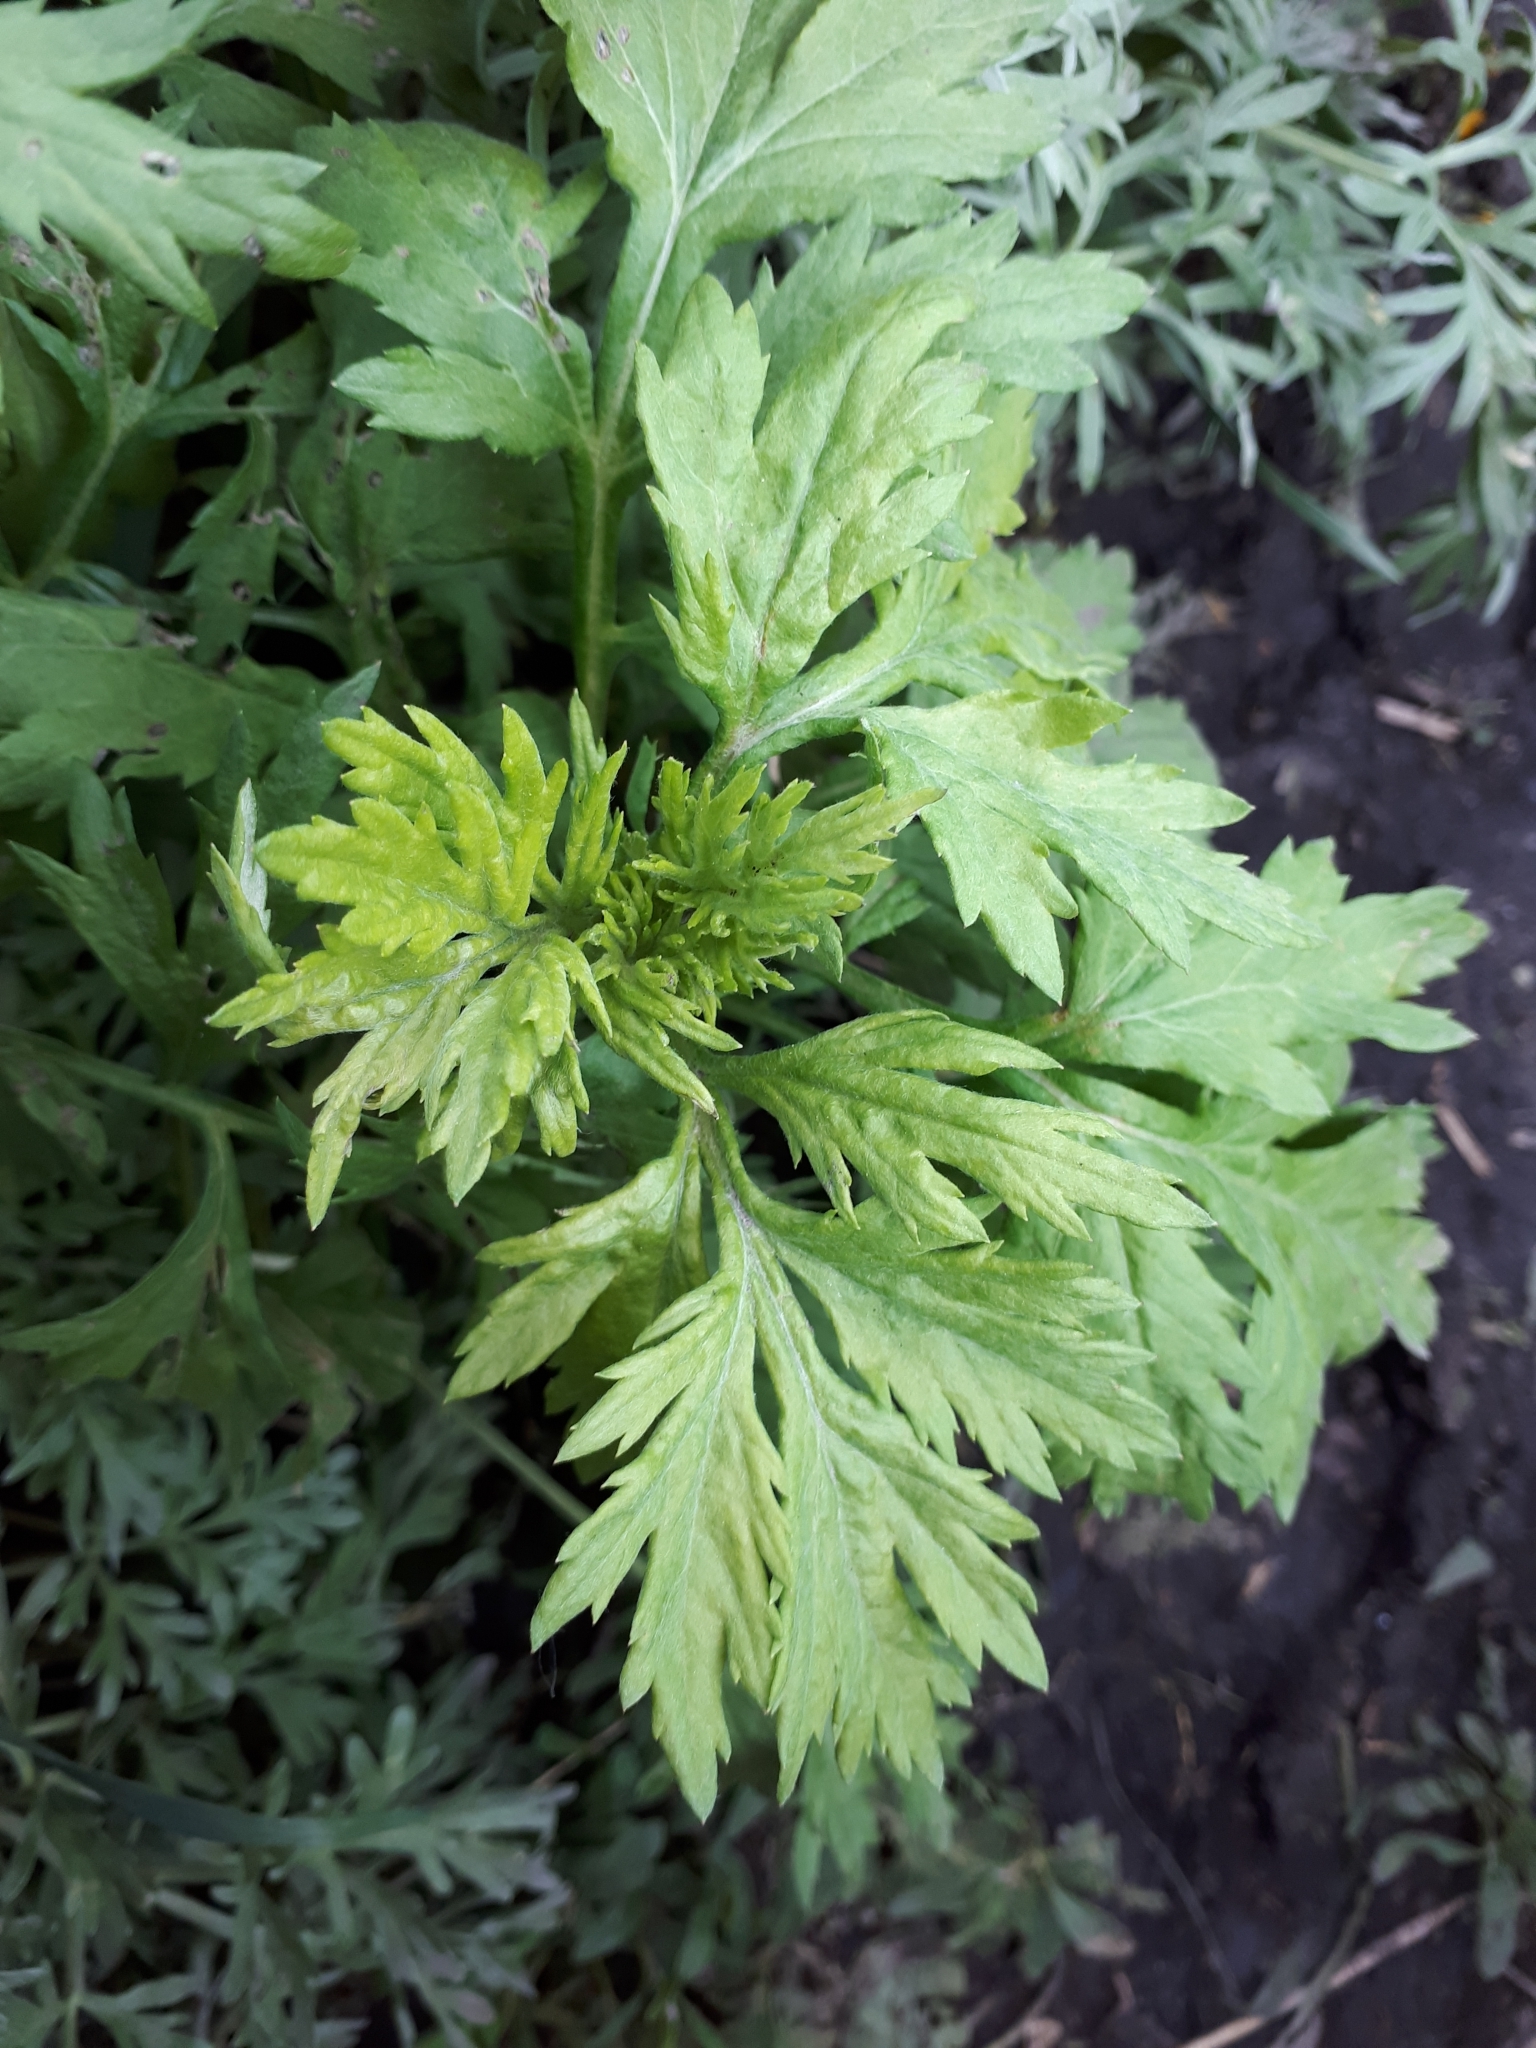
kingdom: Plantae
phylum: Tracheophyta
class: Magnoliopsida
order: Asterales
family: Asteraceae
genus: Artemisia
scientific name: Artemisia vulgaris
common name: Mugwort
